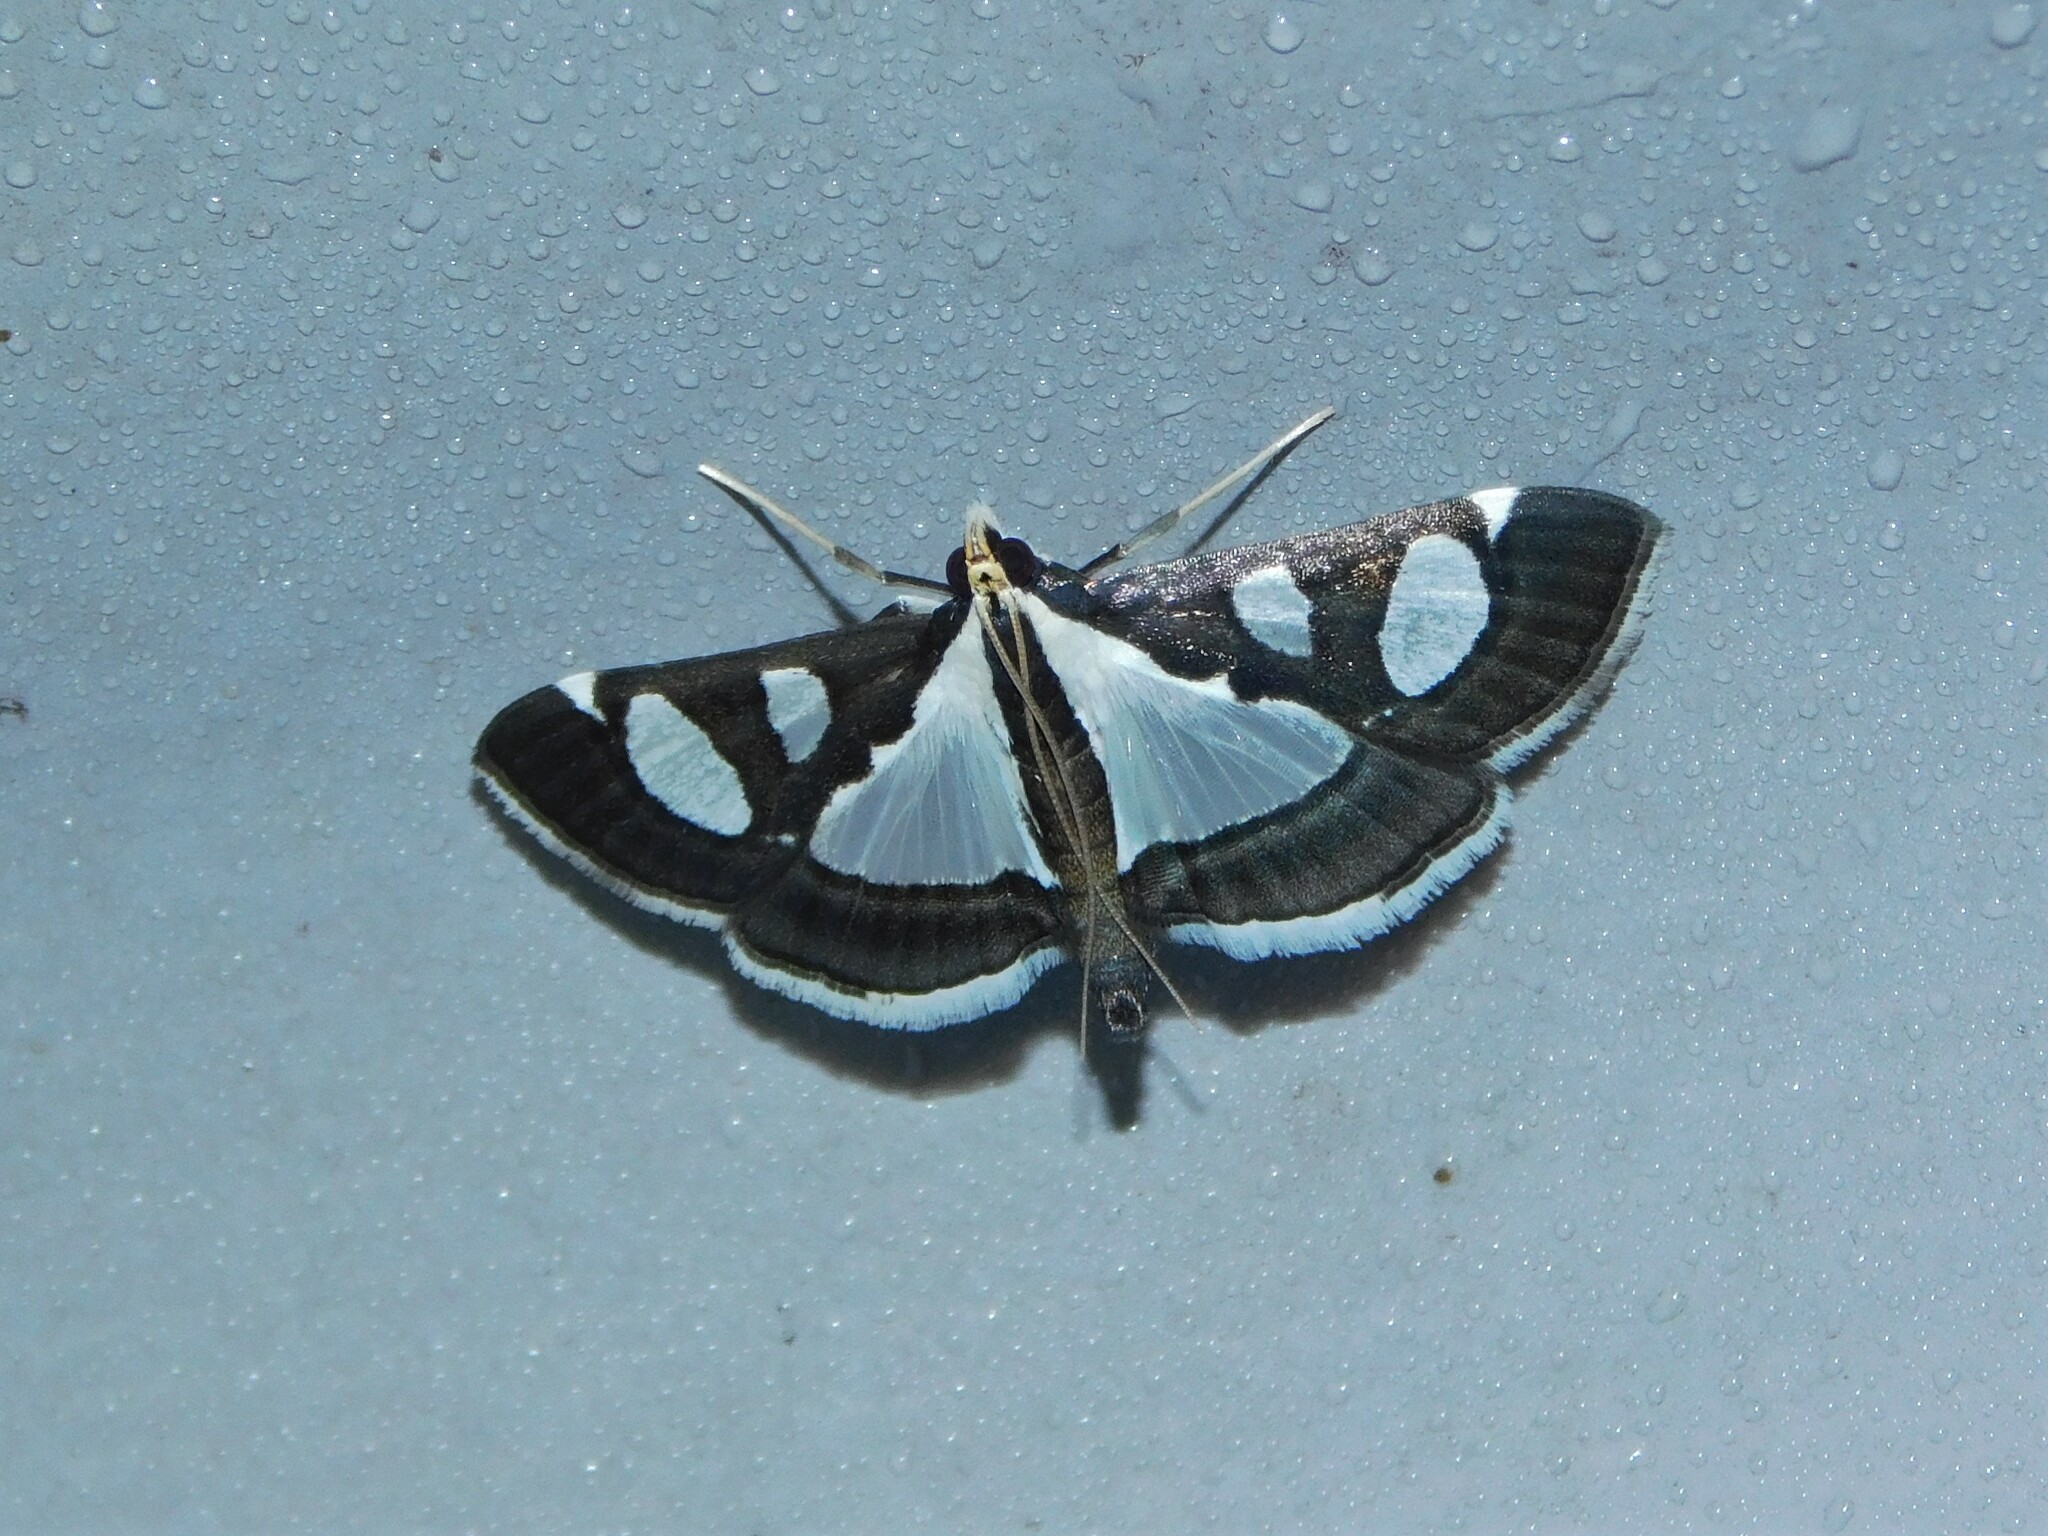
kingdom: Animalia
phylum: Arthropoda
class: Insecta
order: Lepidoptera
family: Crambidae
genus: Glyphodes
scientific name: Glyphodes bicolor
